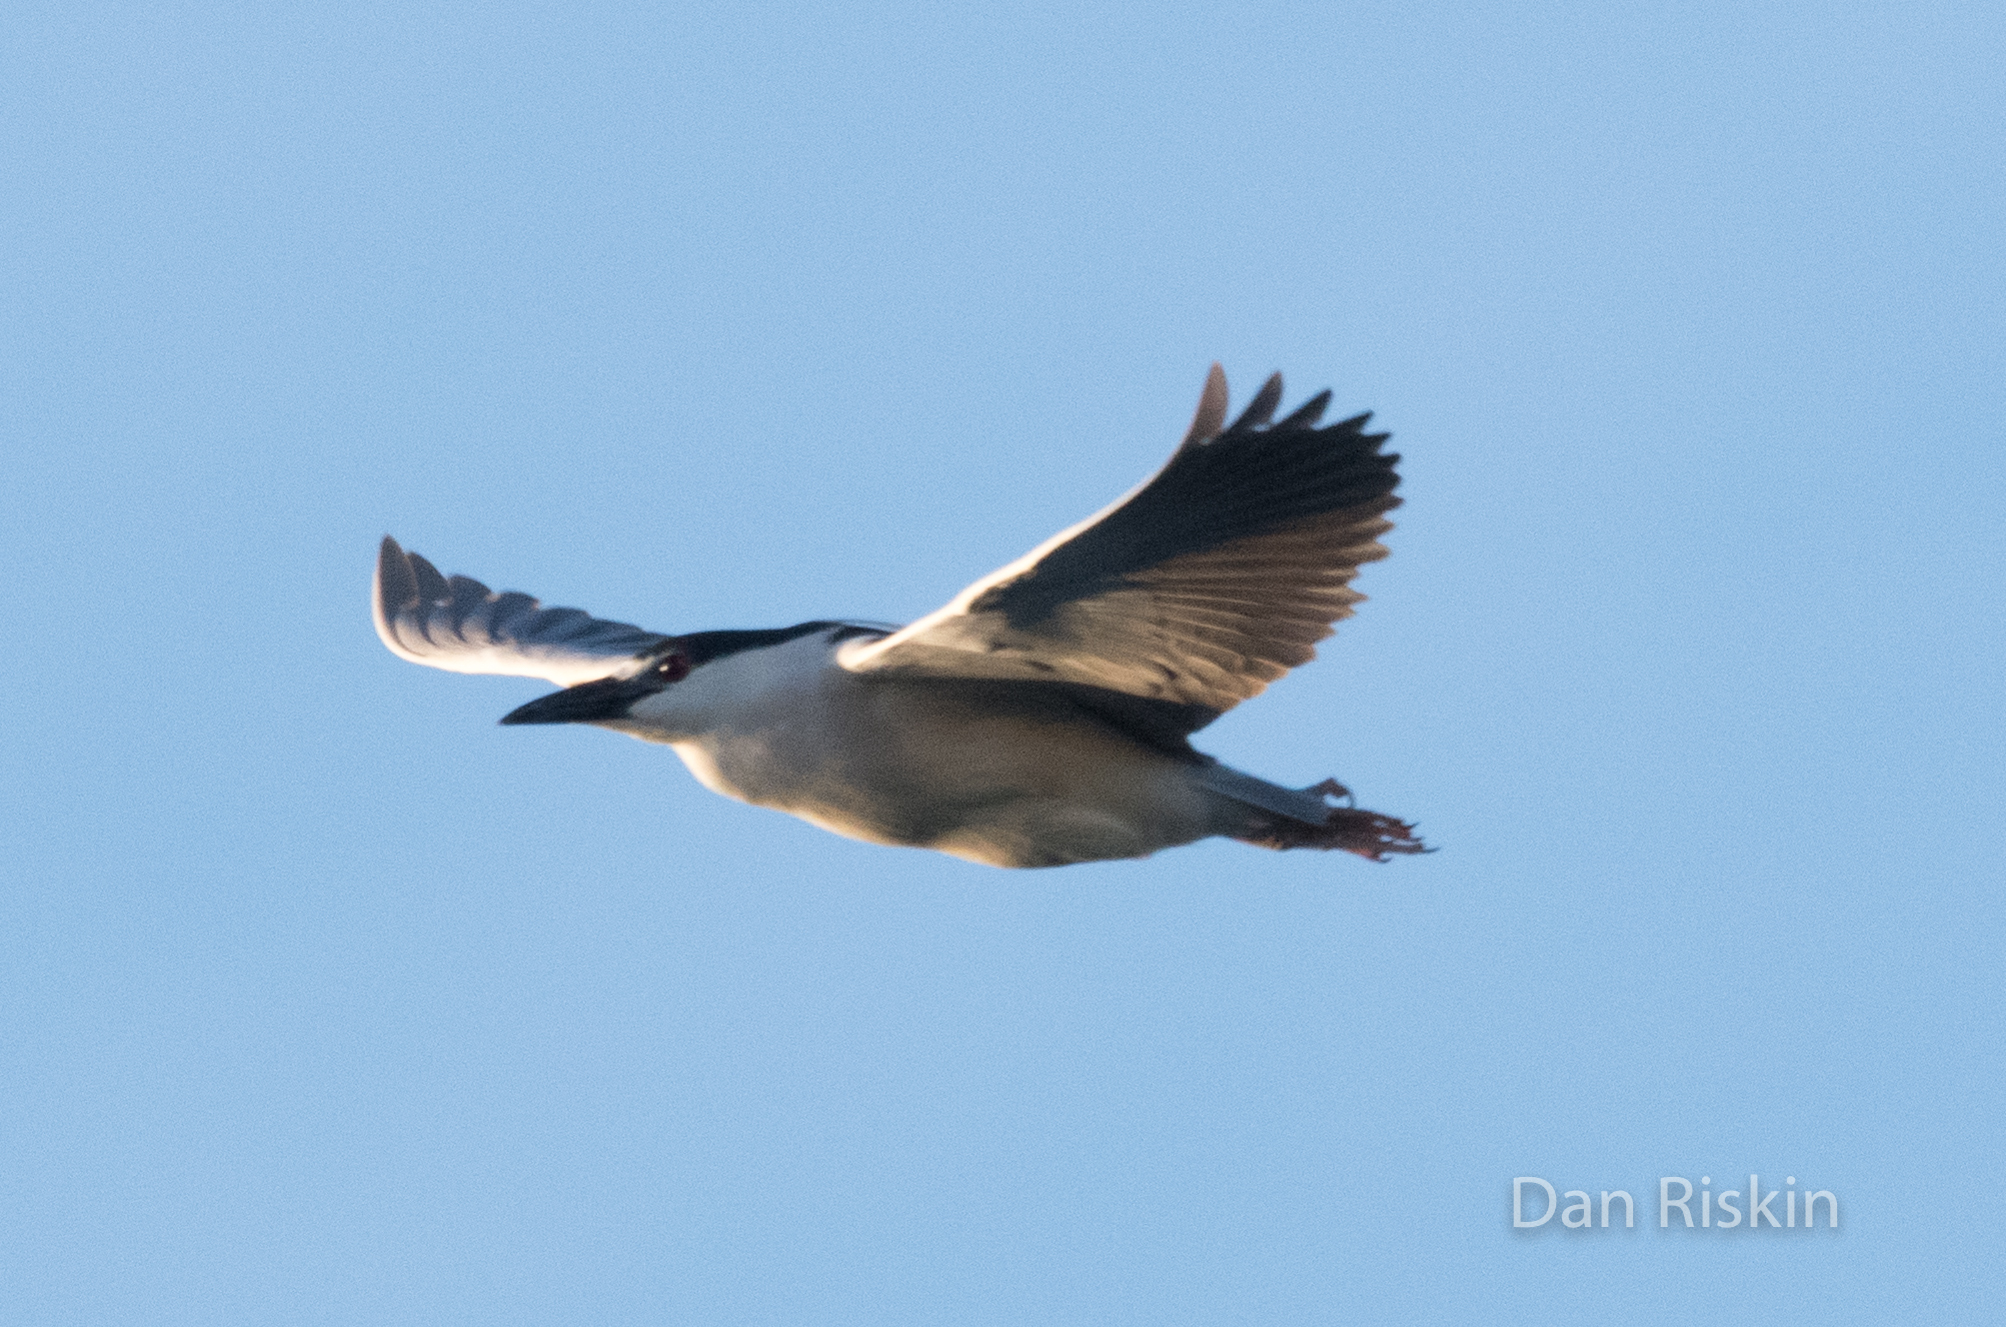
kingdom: Animalia
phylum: Chordata
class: Aves
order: Pelecaniformes
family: Ardeidae
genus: Nycticorax
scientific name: Nycticorax nycticorax
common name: Black-crowned night heron
